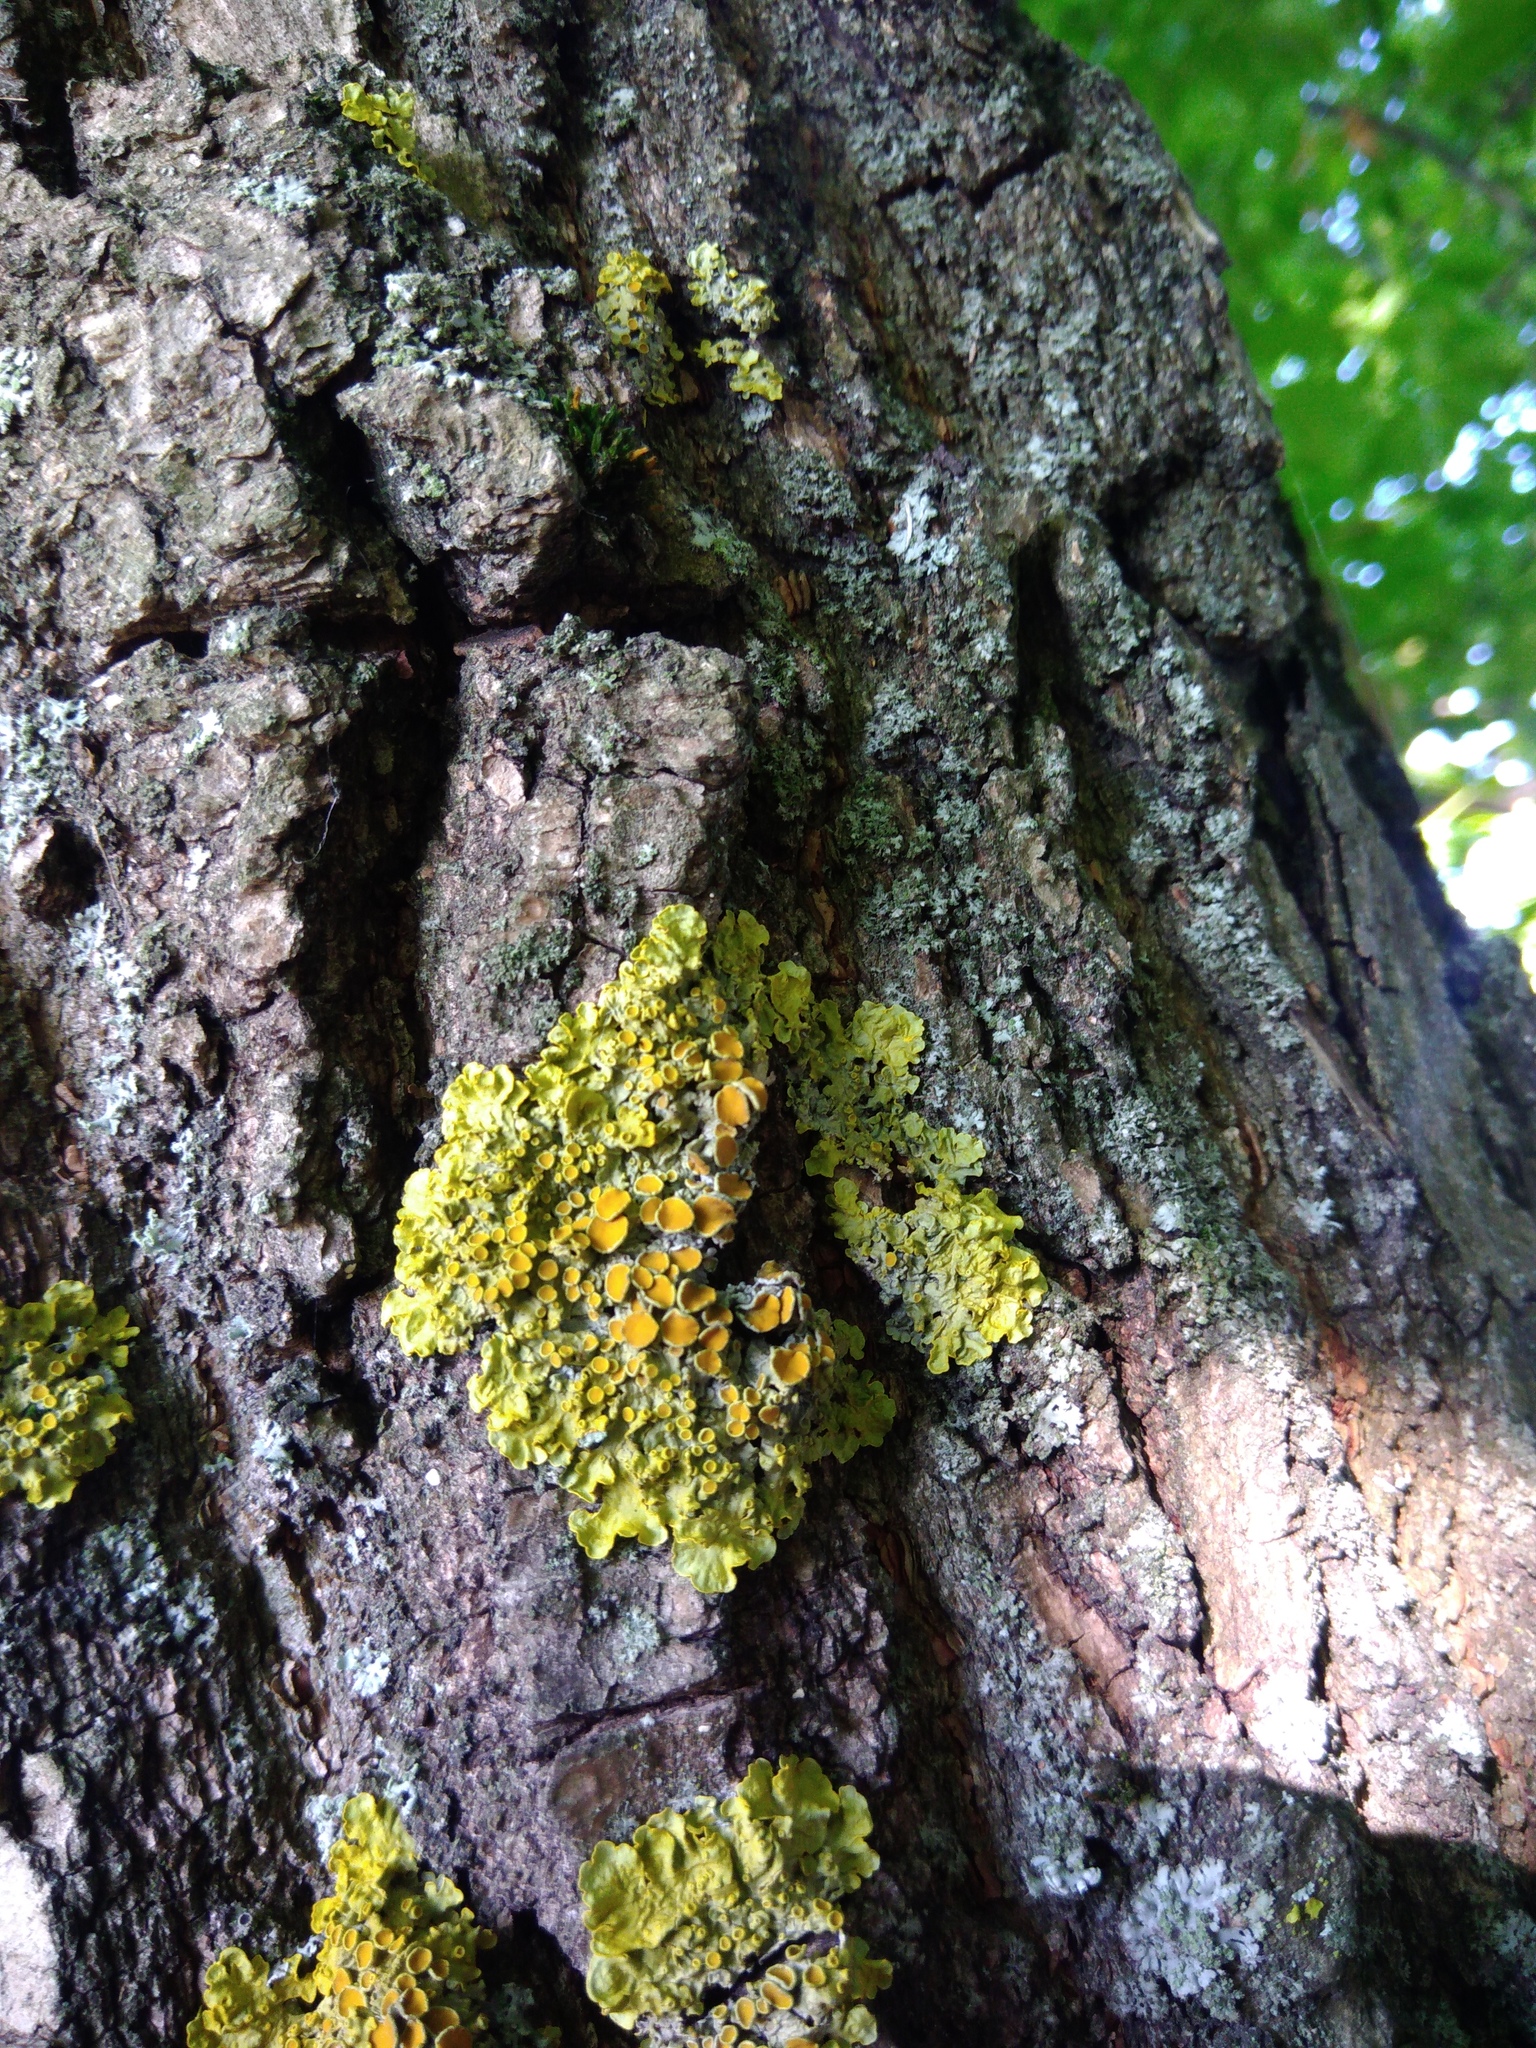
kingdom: Fungi
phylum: Ascomycota
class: Lecanoromycetes
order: Teloschistales
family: Teloschistaceae
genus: Xanthoria
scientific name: Xanthoria parietina
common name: Common orange lichen
